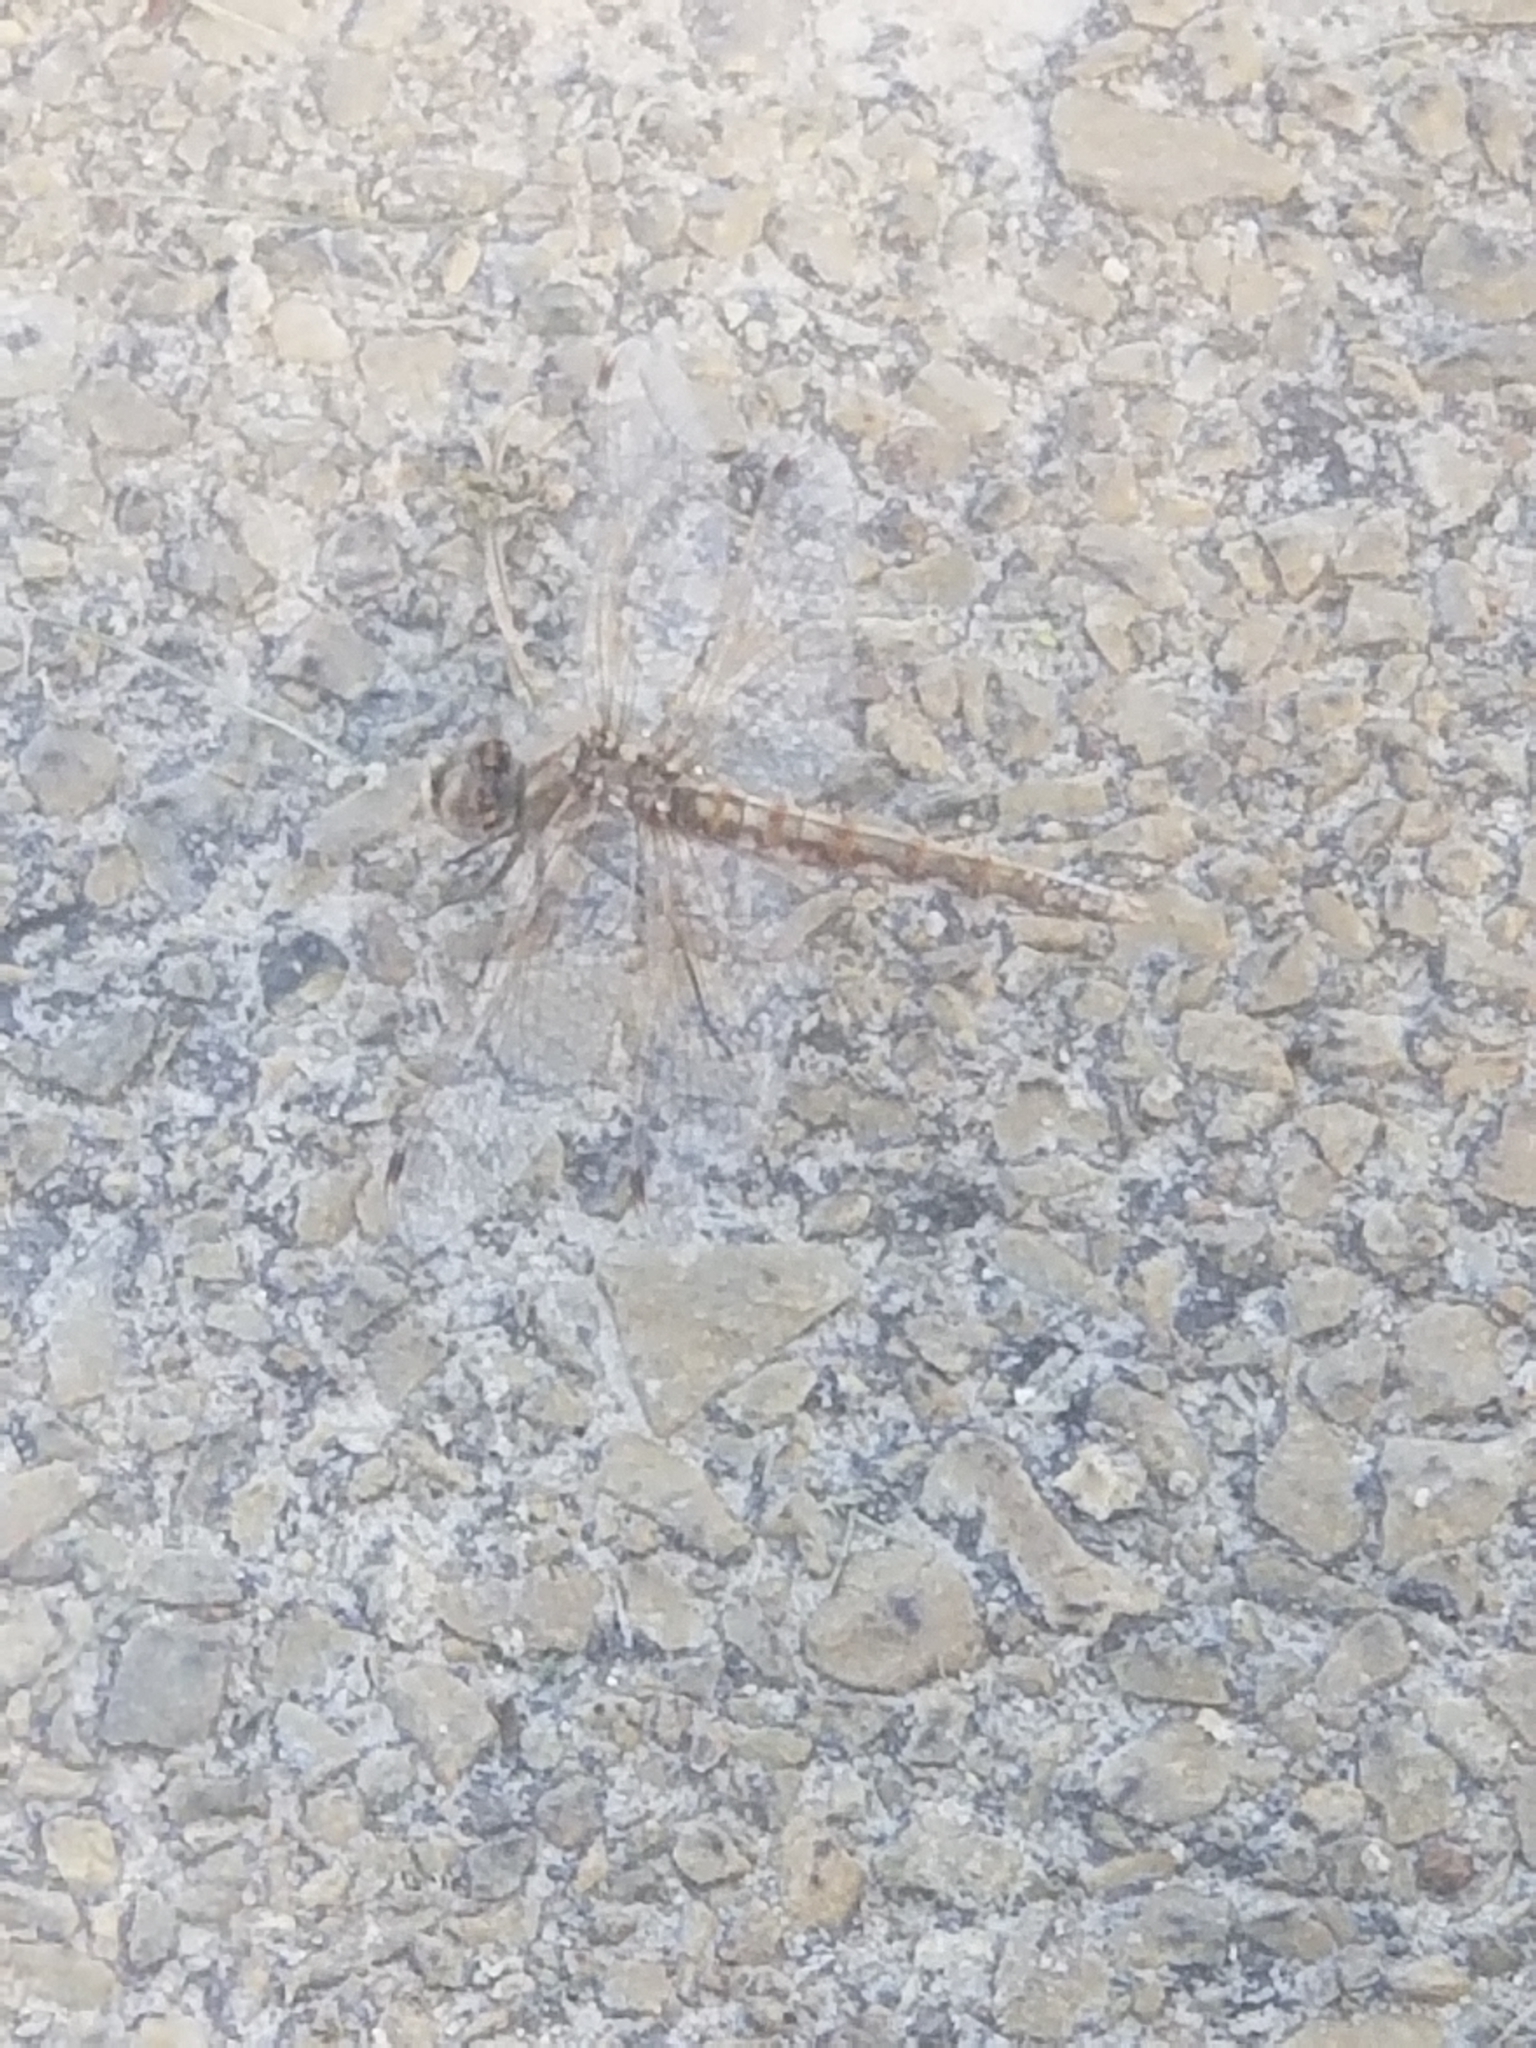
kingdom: Animalia
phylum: Arthropoda
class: Insecta
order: Odonata
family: Libellulidae
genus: Sympetrum
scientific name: Sympetrum corruptum
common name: Variegated meadowhawk
